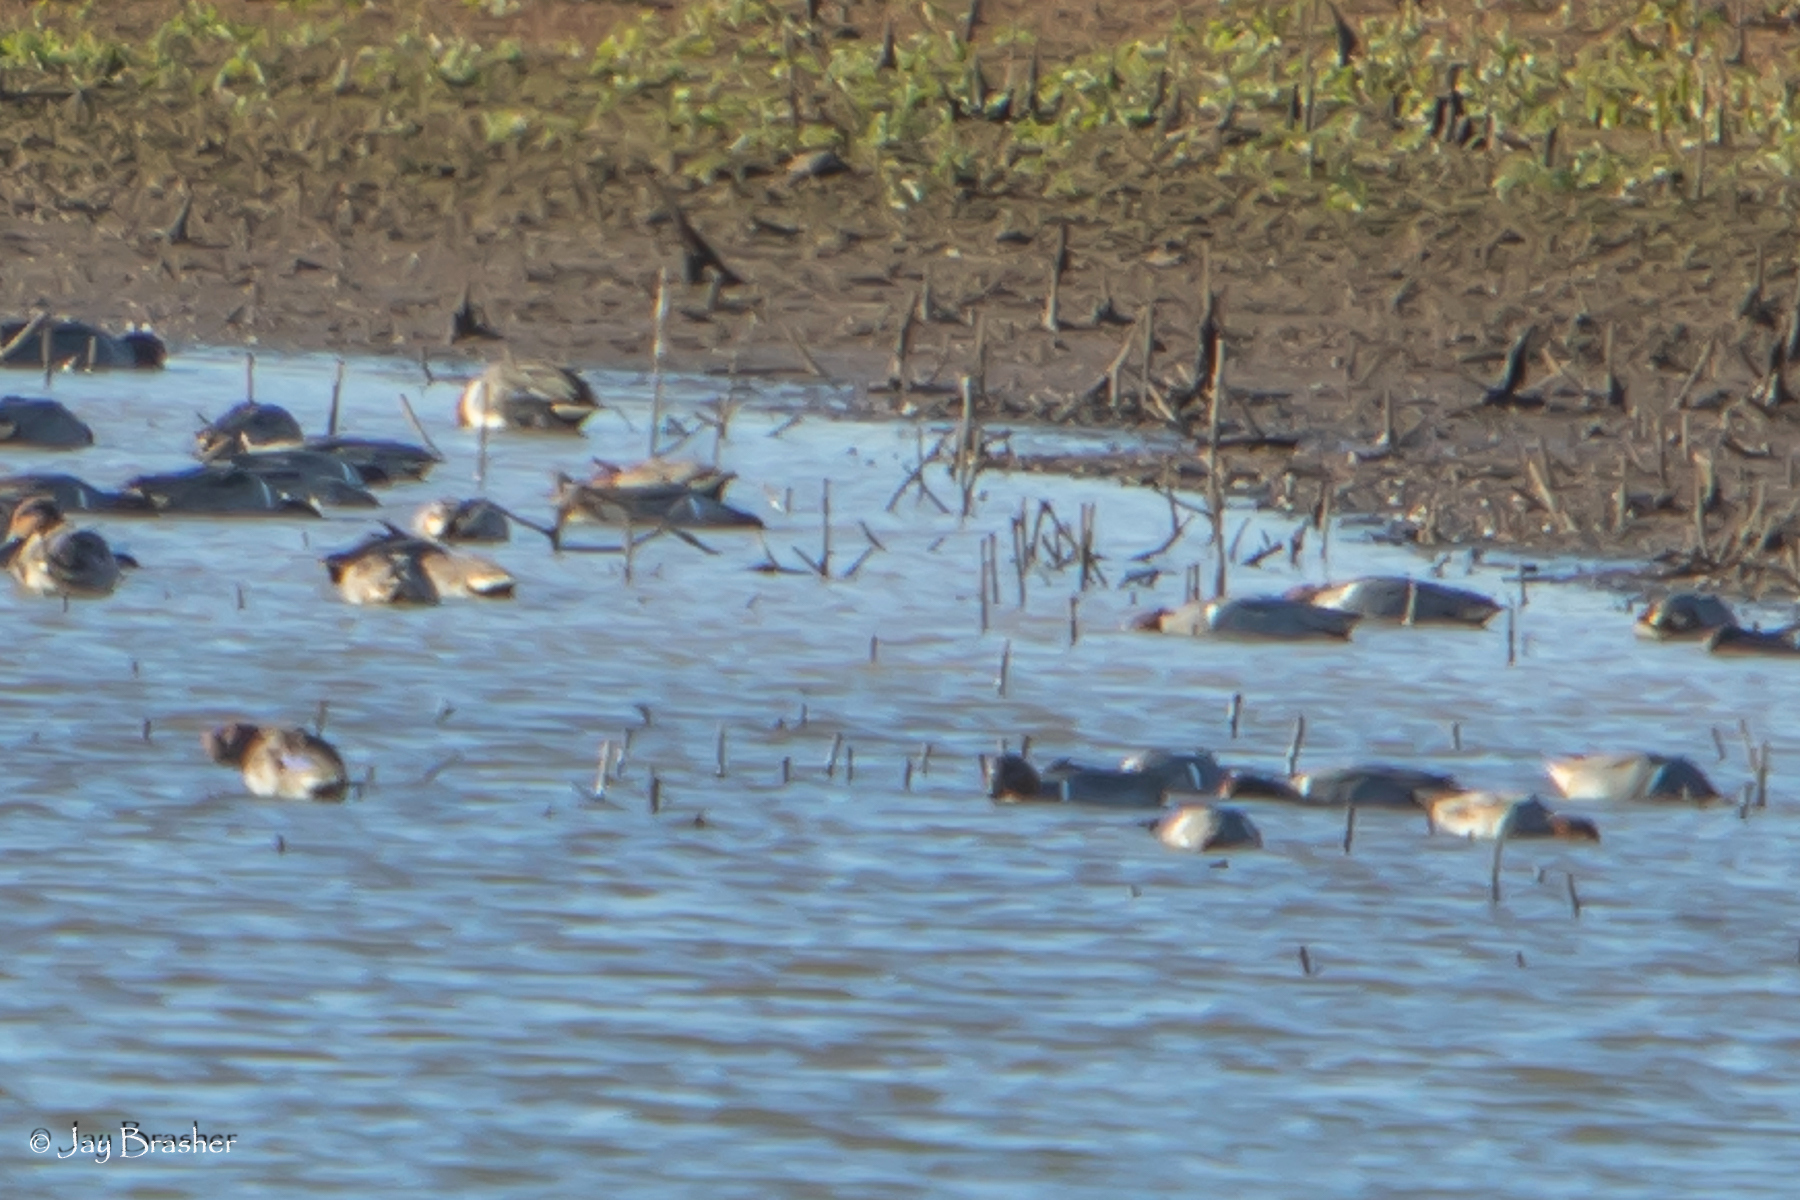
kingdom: Animalia
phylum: Chordata
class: Aves
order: Anseriformes
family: Anatidae
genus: Anas
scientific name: Anas crecca
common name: Eurasian teal
